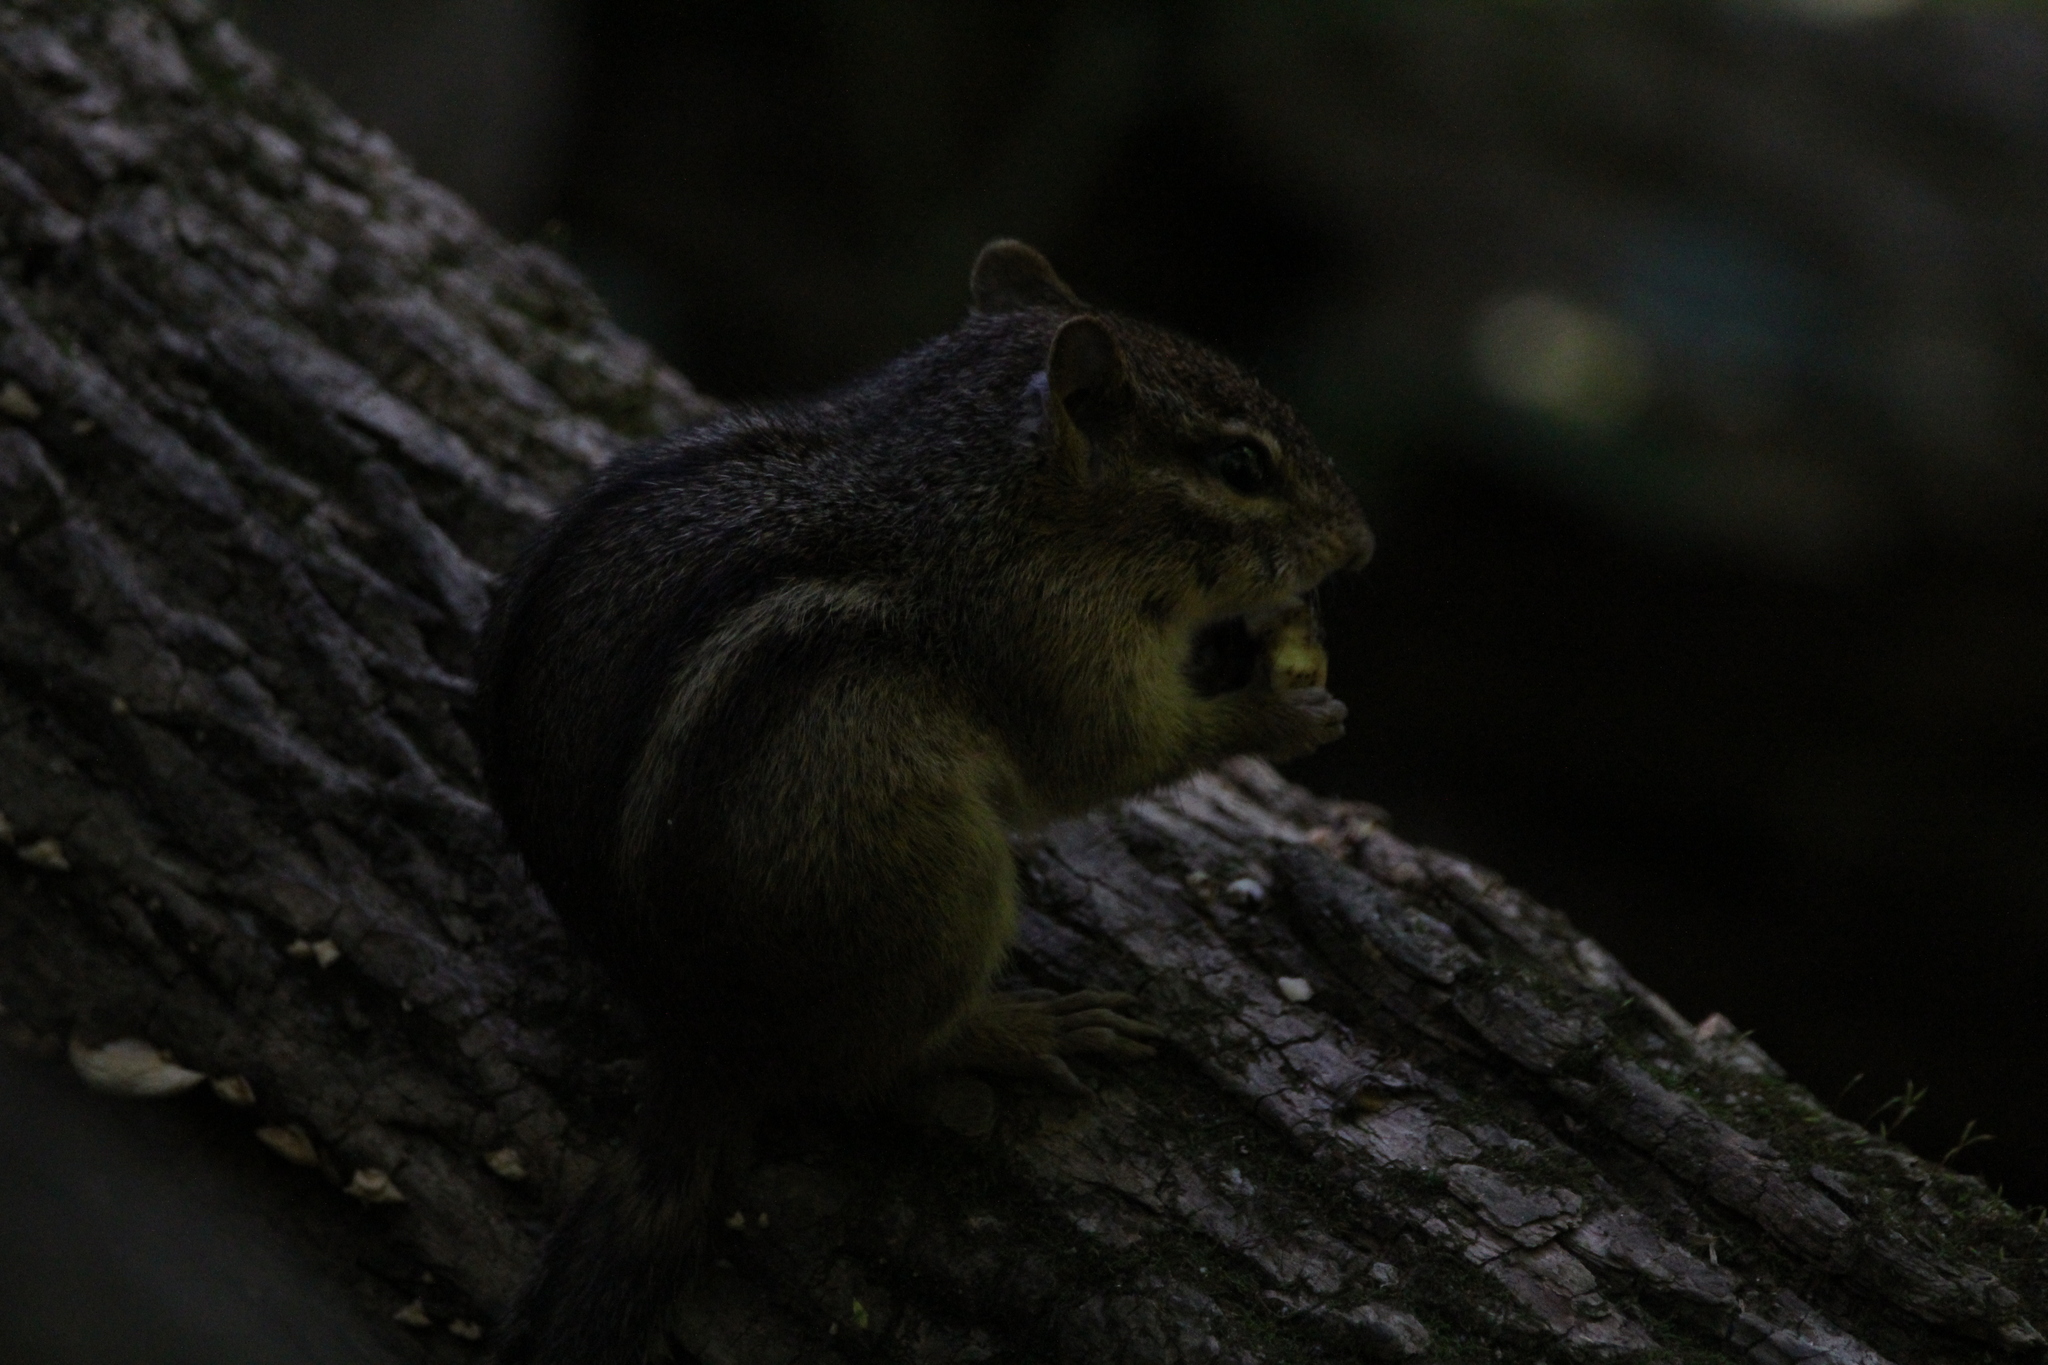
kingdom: Animalia
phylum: Chordata
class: Mammalia
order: Rodentia
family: Sciuridae
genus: Tamias
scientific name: Tamias striatus
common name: Eastern chipmunk
